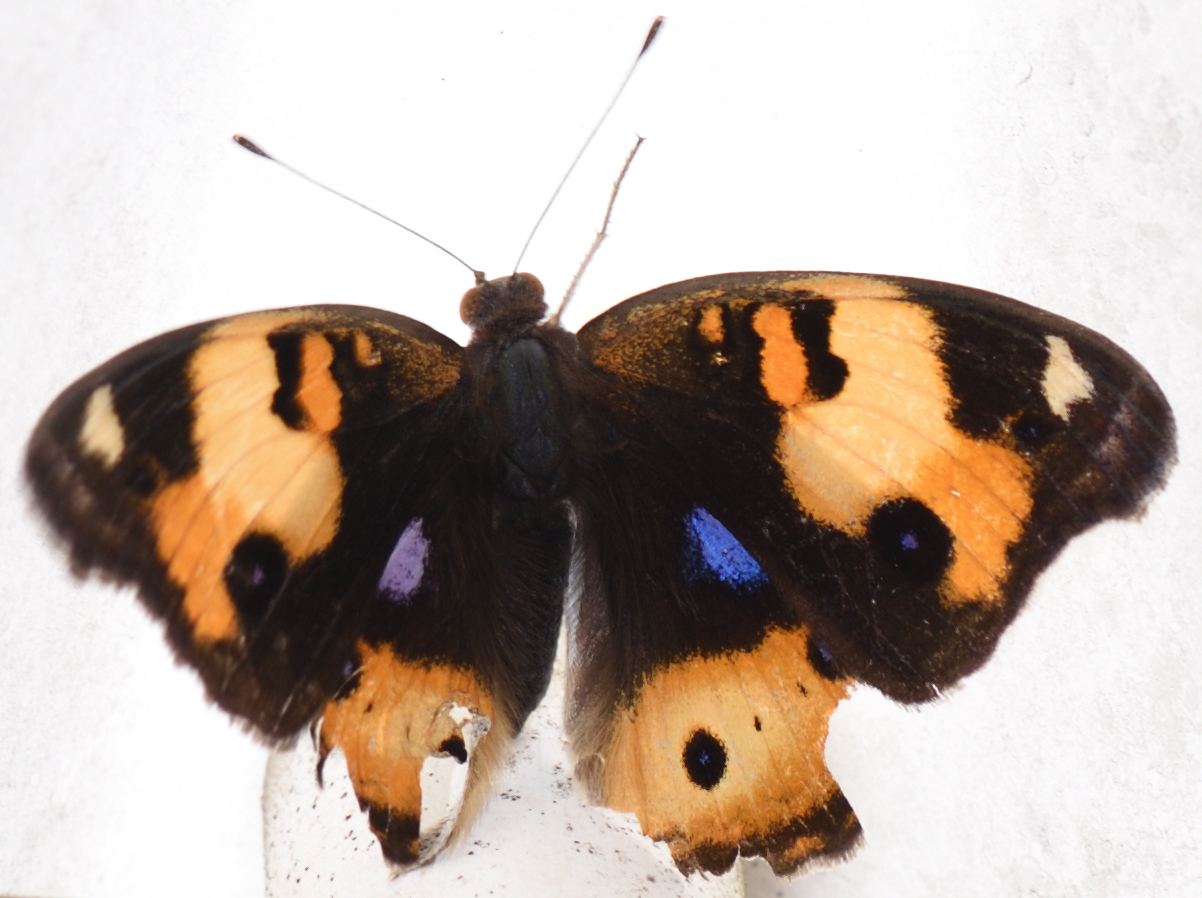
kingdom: Animalia
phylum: Arthropoda
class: Insecta
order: Lepidoptera
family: Nymphalidae
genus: Junonia
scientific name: Junonia hierta
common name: Yellow pansy
